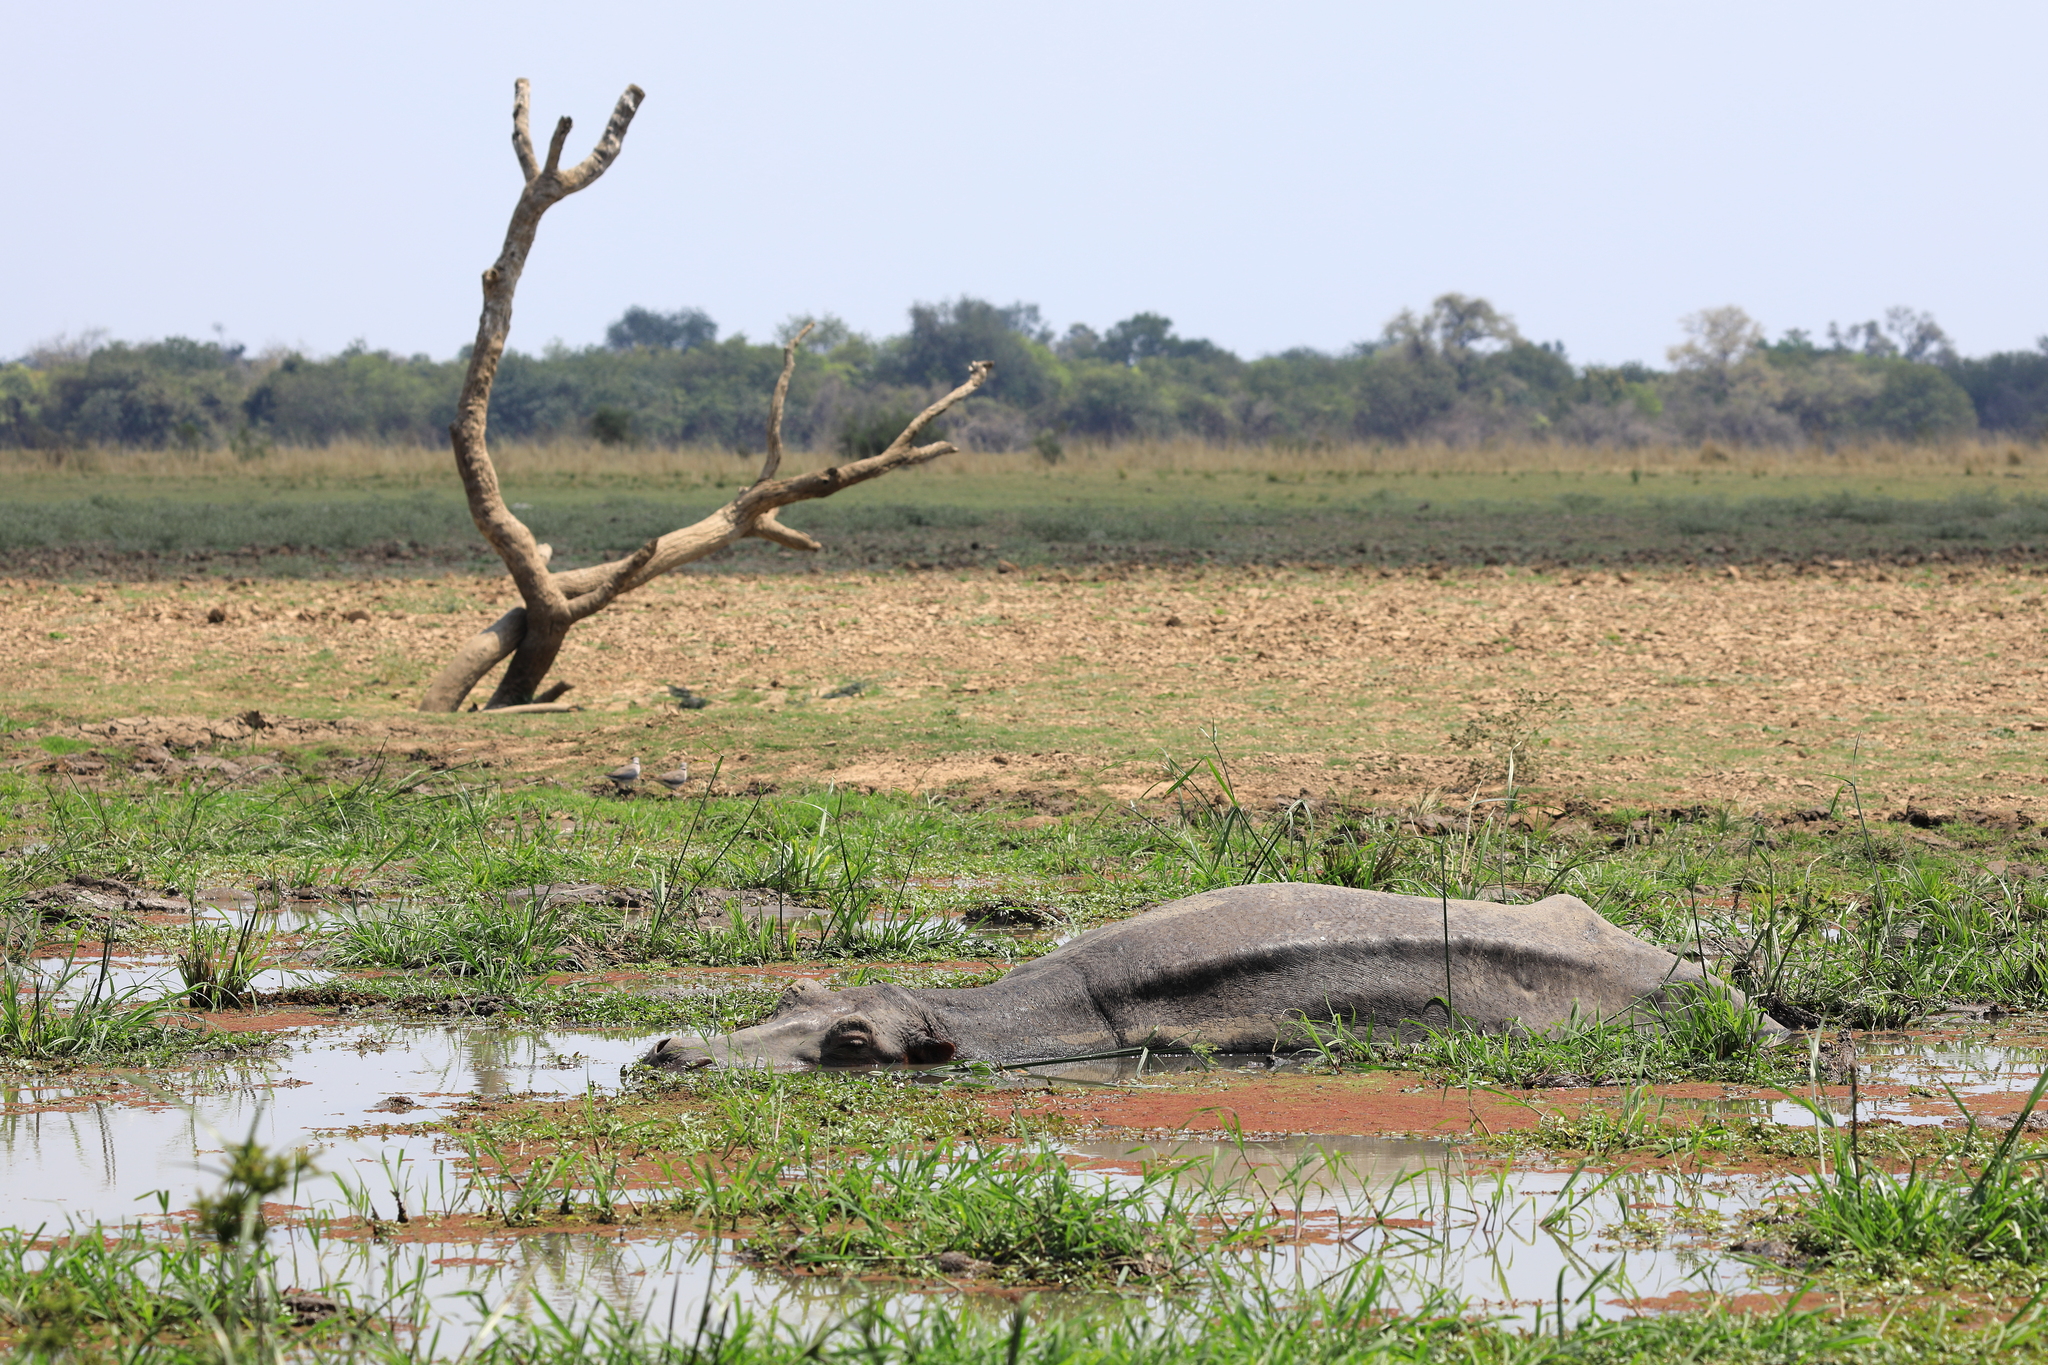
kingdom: Animalia
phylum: Chordata
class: Mammalia
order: Artiodactyla
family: Hippopotamidae
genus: Hippopotamus
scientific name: Hippopotamus amphibius
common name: Common hippopotamus
